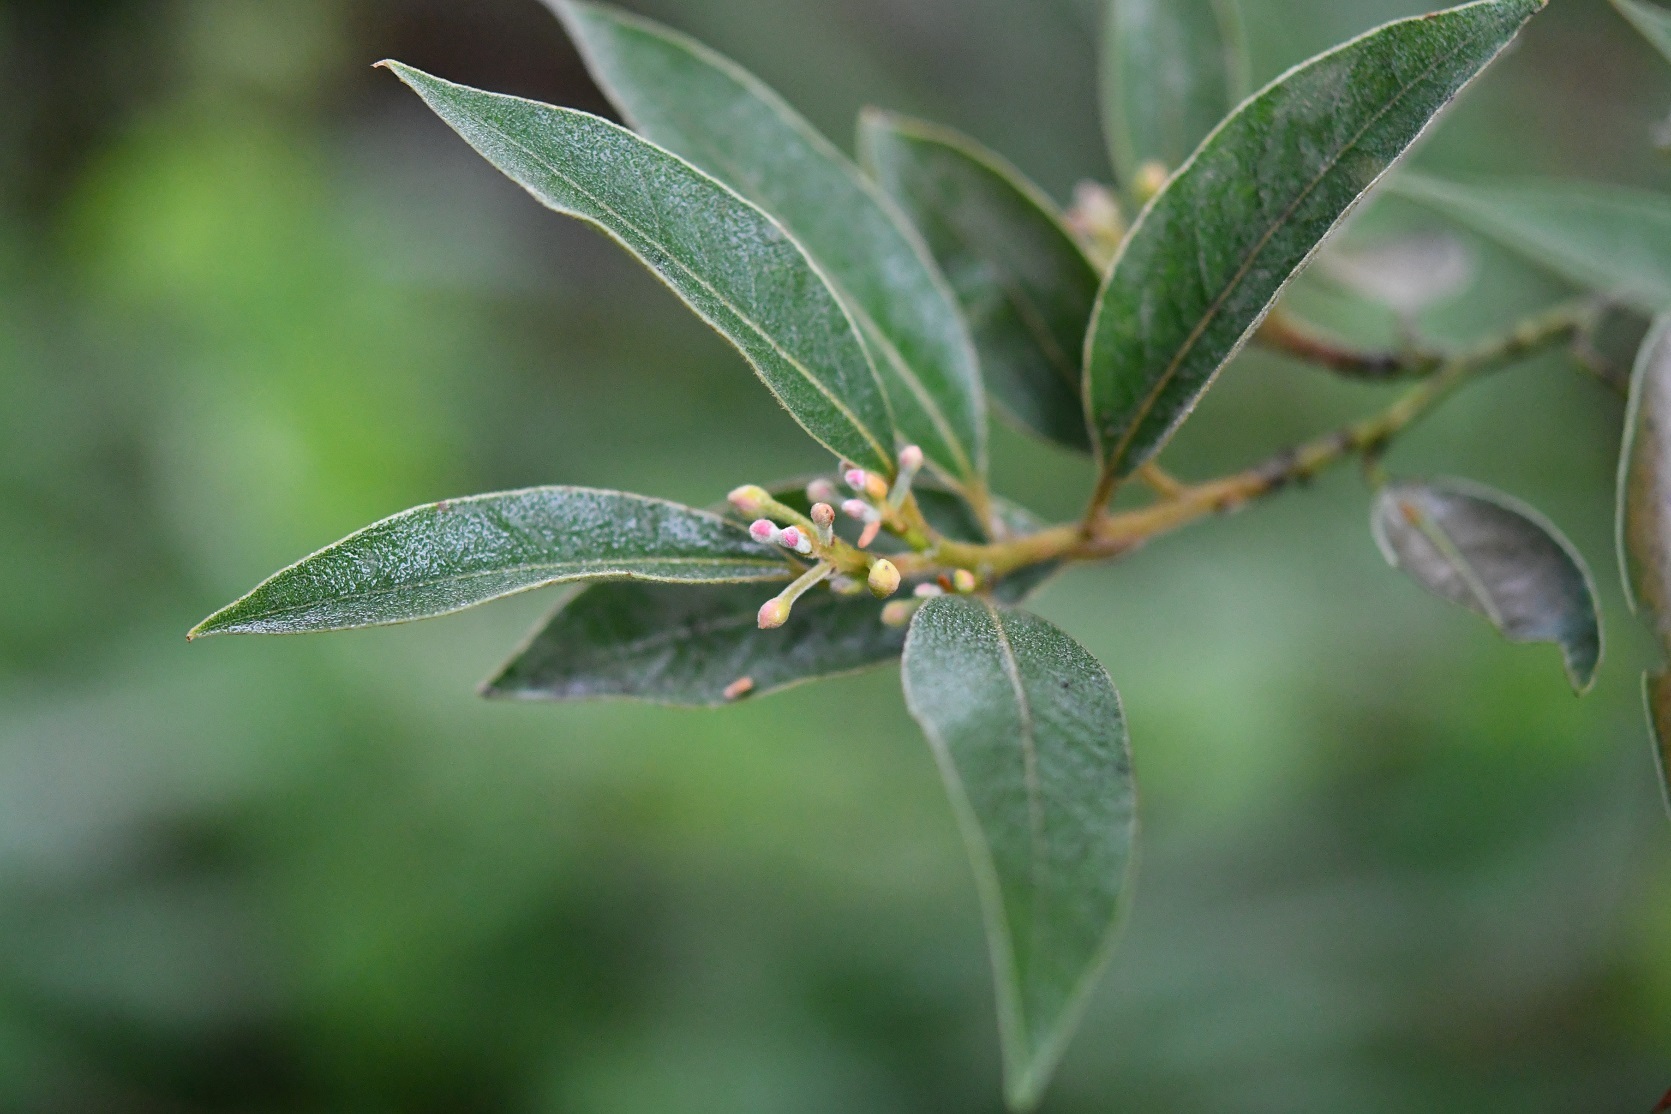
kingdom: Plantae
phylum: Tracheophyta
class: Magnoliopsida
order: Laurales
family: Lauraceae
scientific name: Lauraceae
